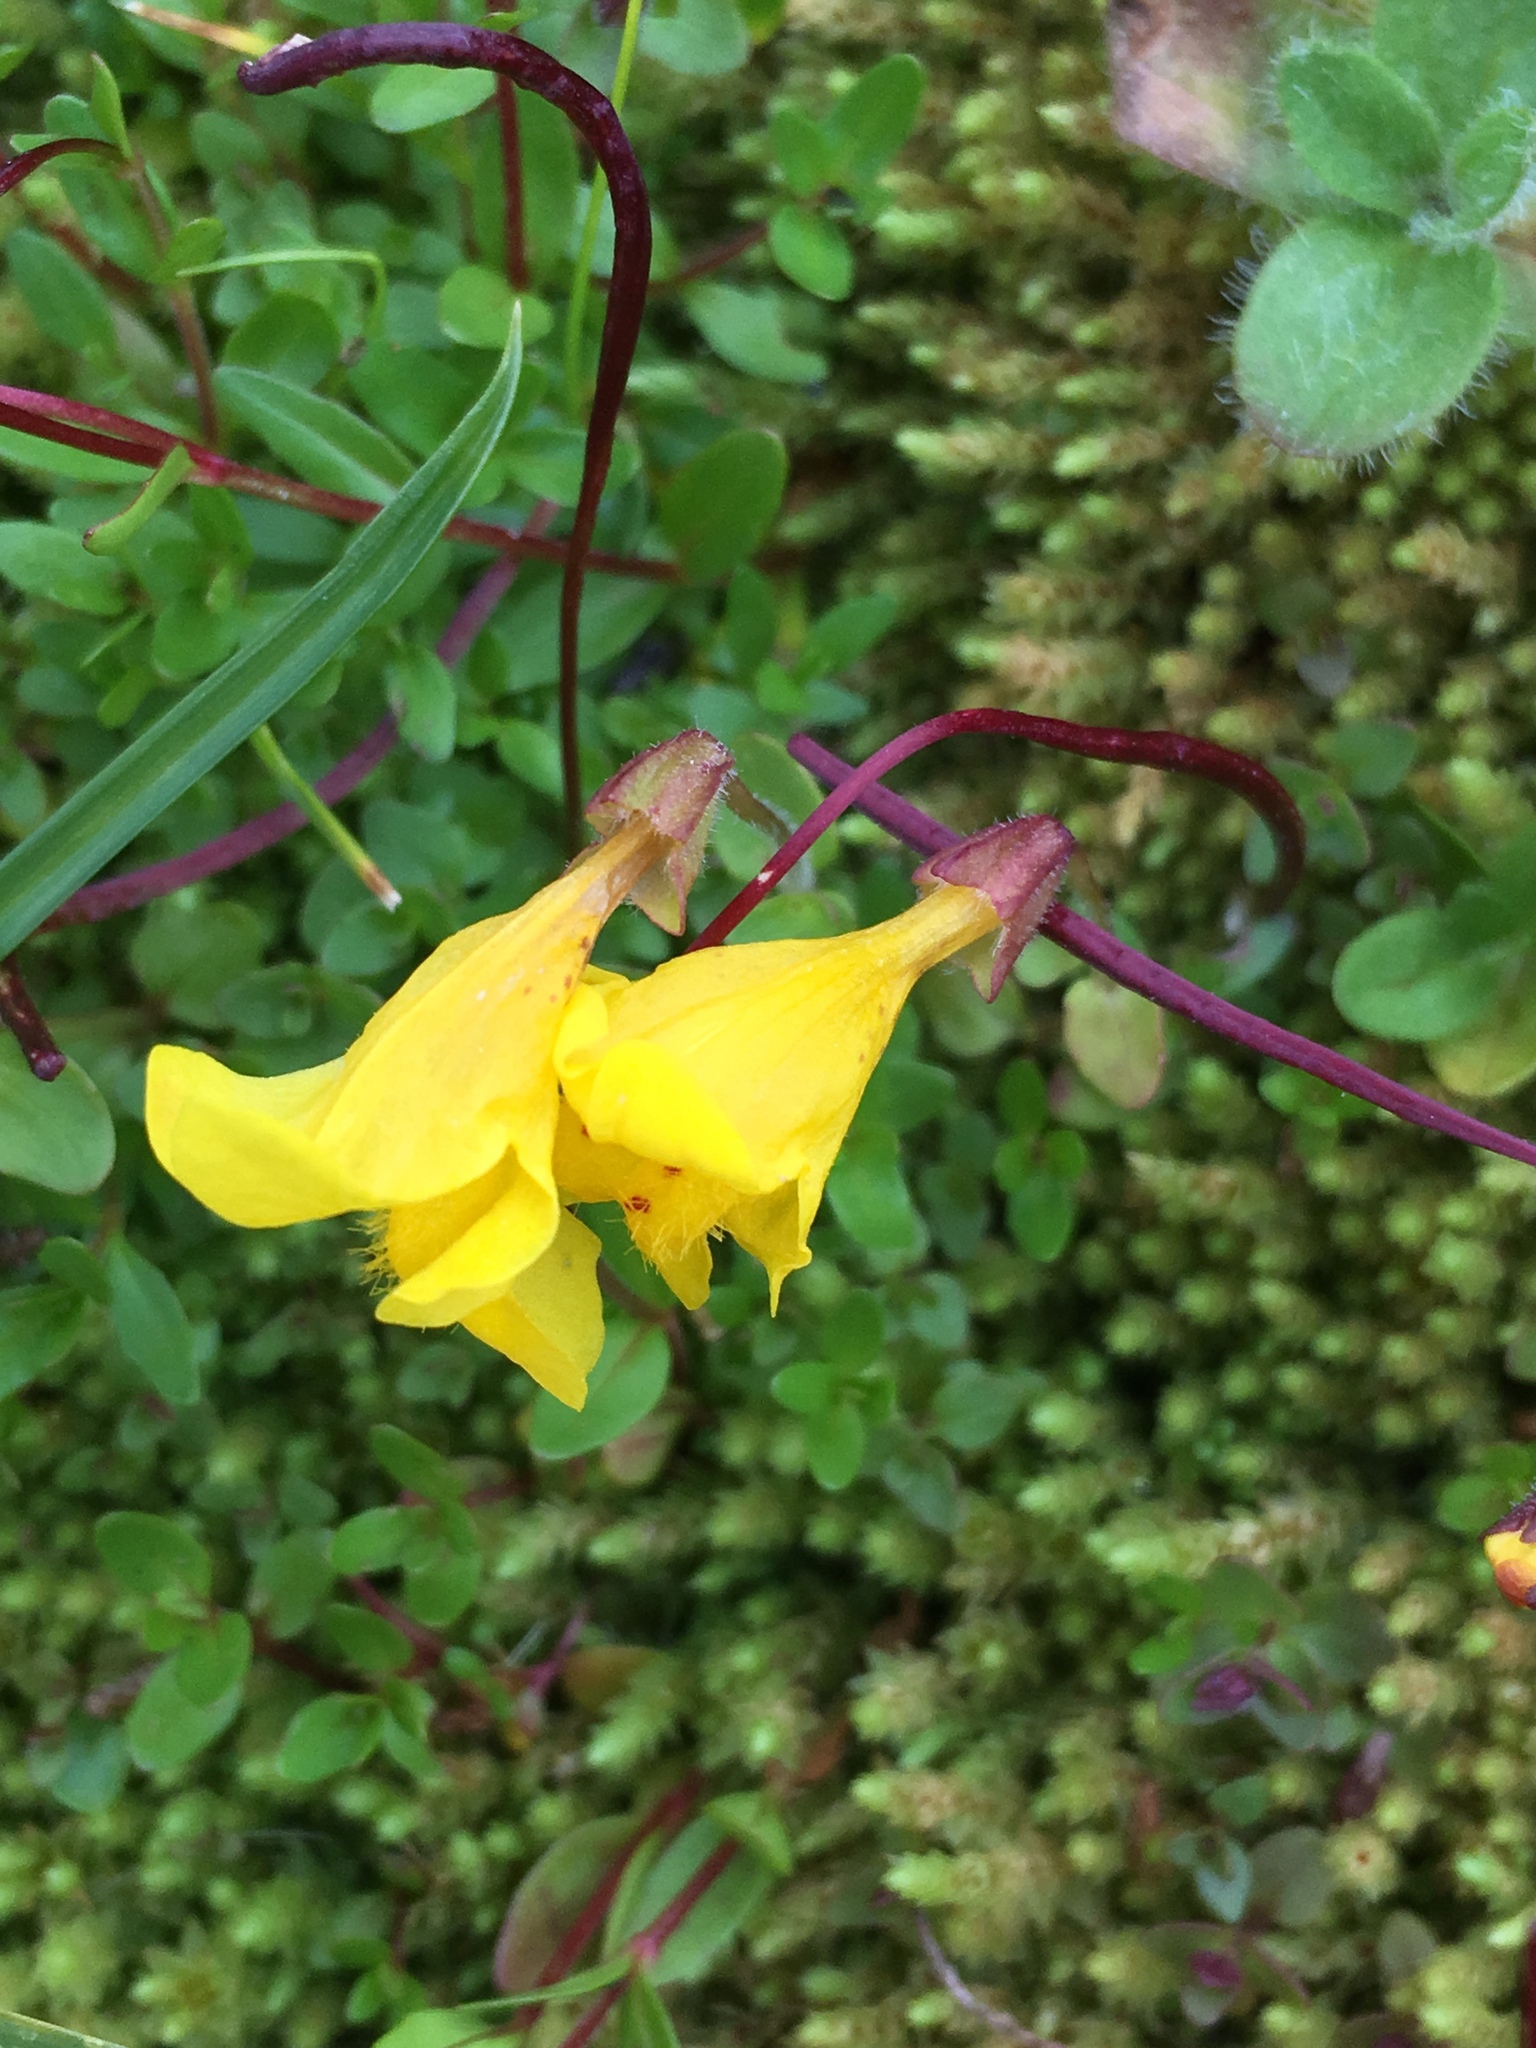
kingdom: Plantae
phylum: Tracheophyta
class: Magnoliopsida
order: Lamiales
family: Phrymaceae
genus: Erythranthe
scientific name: Erythranthe caespitosa
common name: Subalpine monkeyflower
